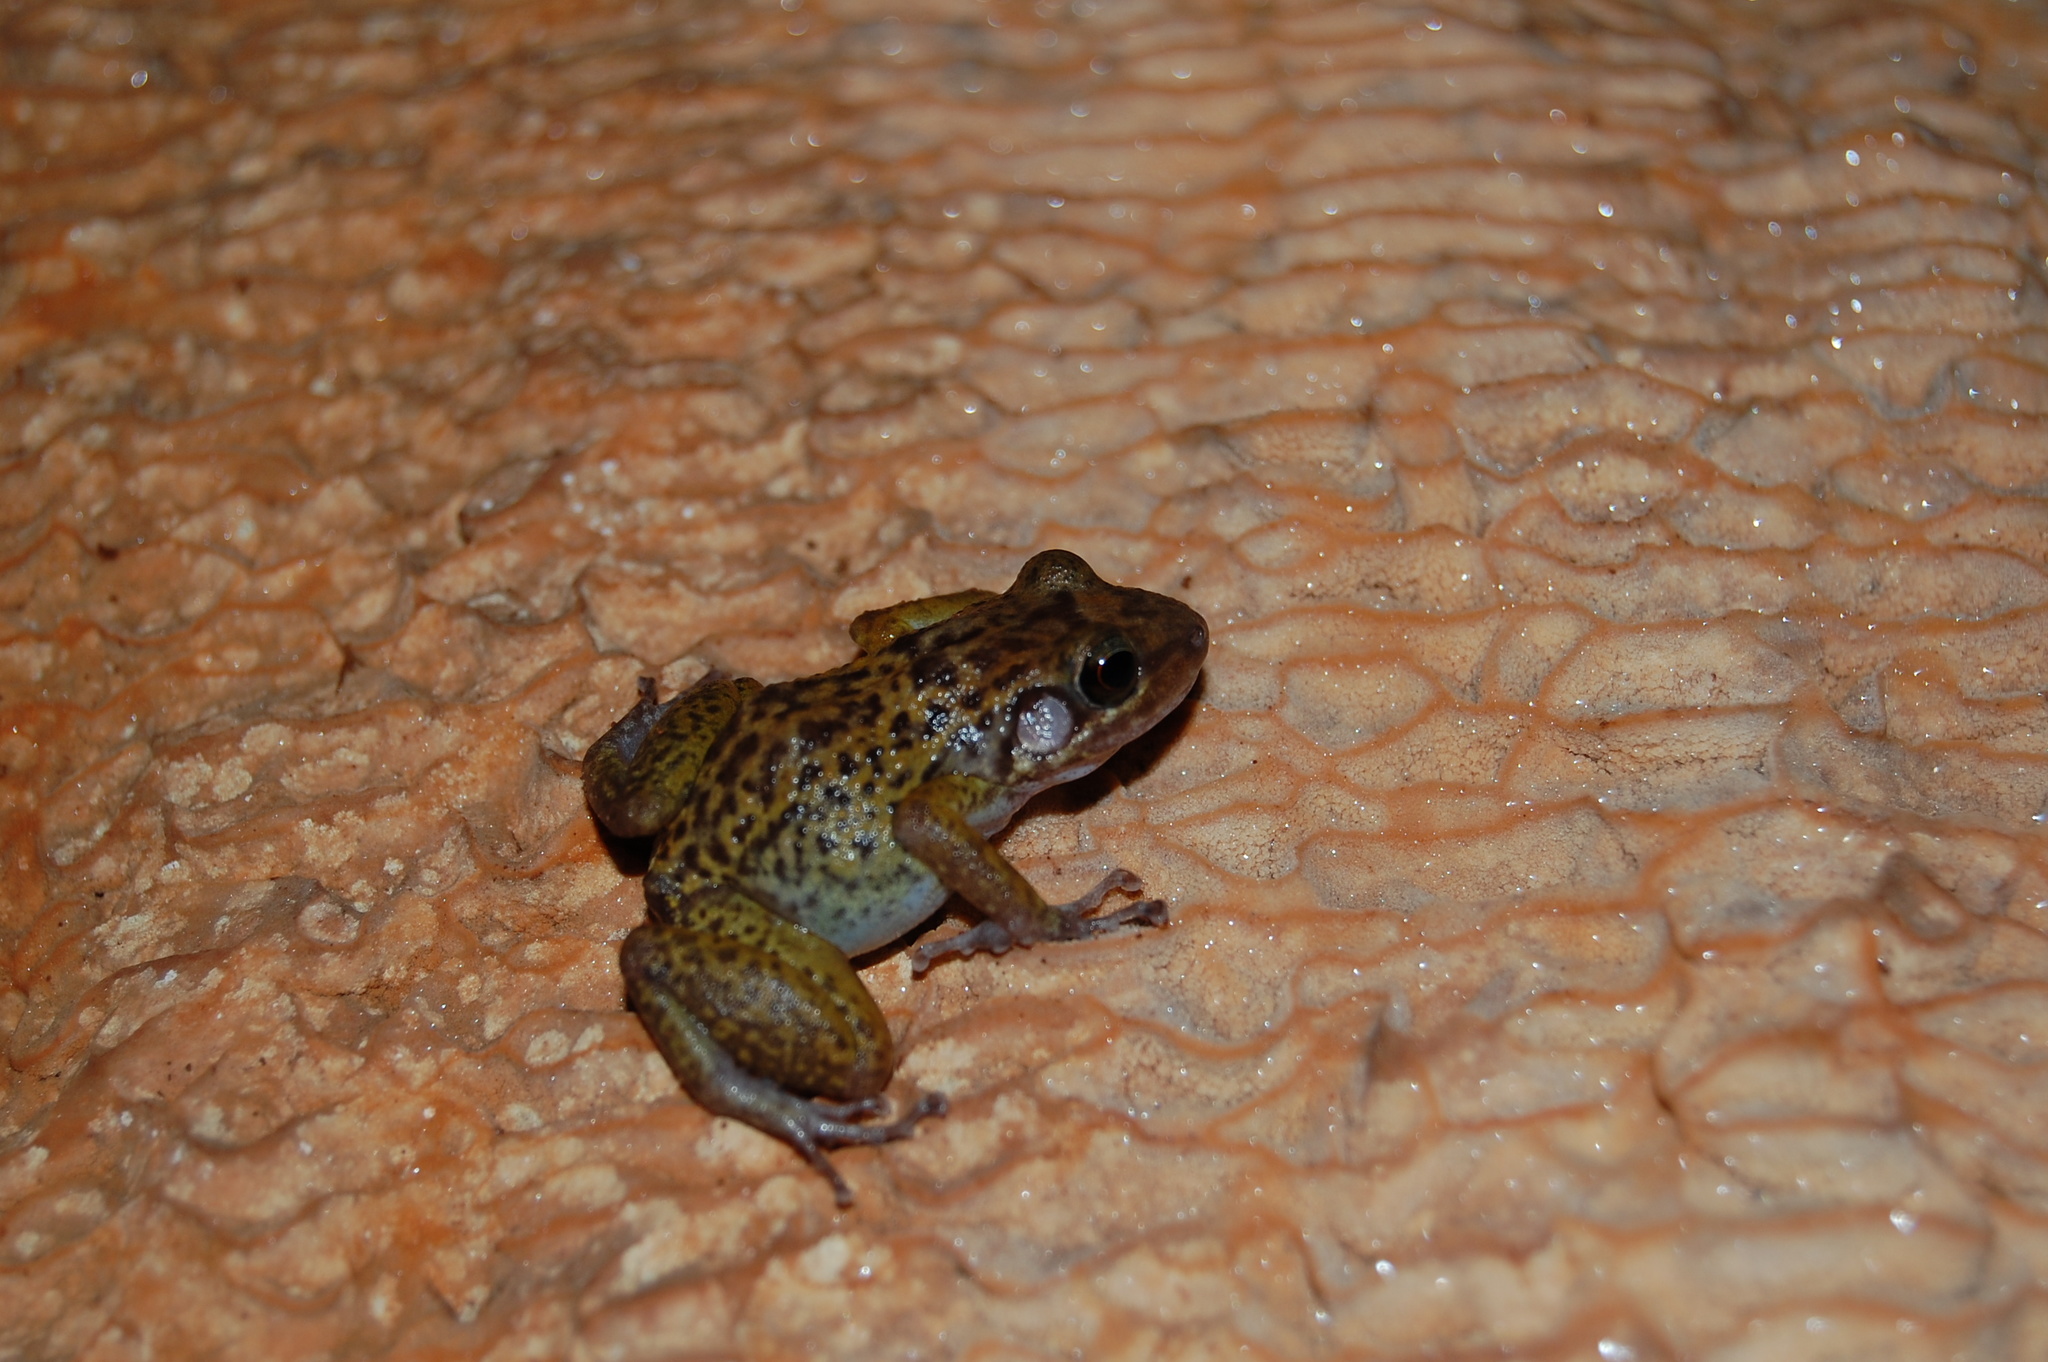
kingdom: Animalia
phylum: Chordata
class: Amphibia
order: Anura
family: Eleutherodactylidae
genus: Eleutherodactylus
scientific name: Eleutherodactylus alcoae
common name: Barahona rock frog
